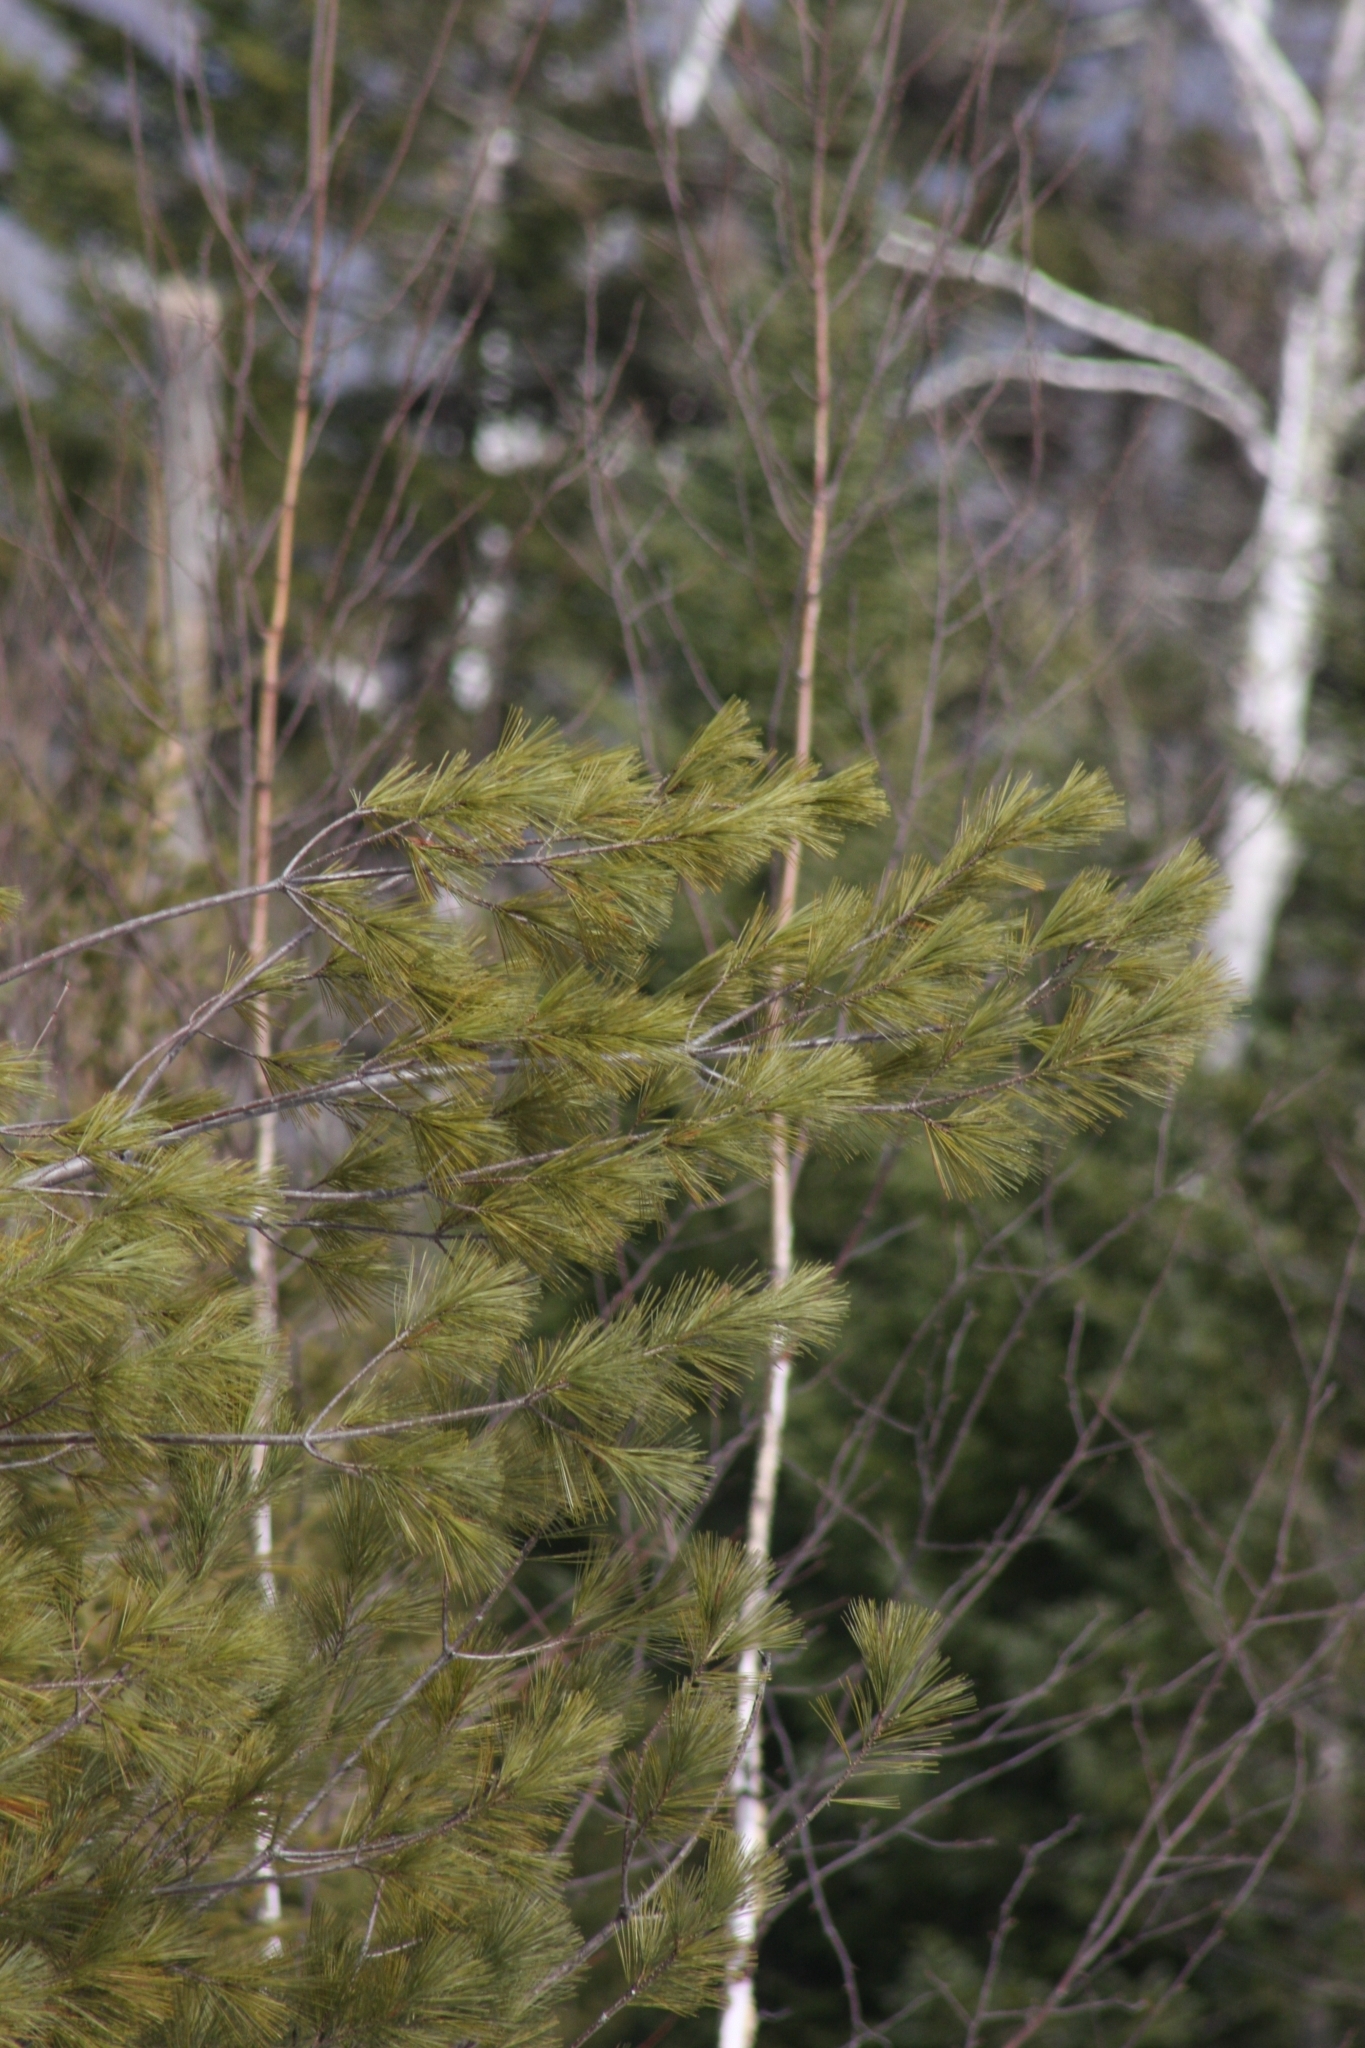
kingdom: Plantae
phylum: Tracheophyta
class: Pinopsida
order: Pinales
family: Pinaceae
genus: Pinus
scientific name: Pinus strobus
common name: Weymouth pine
